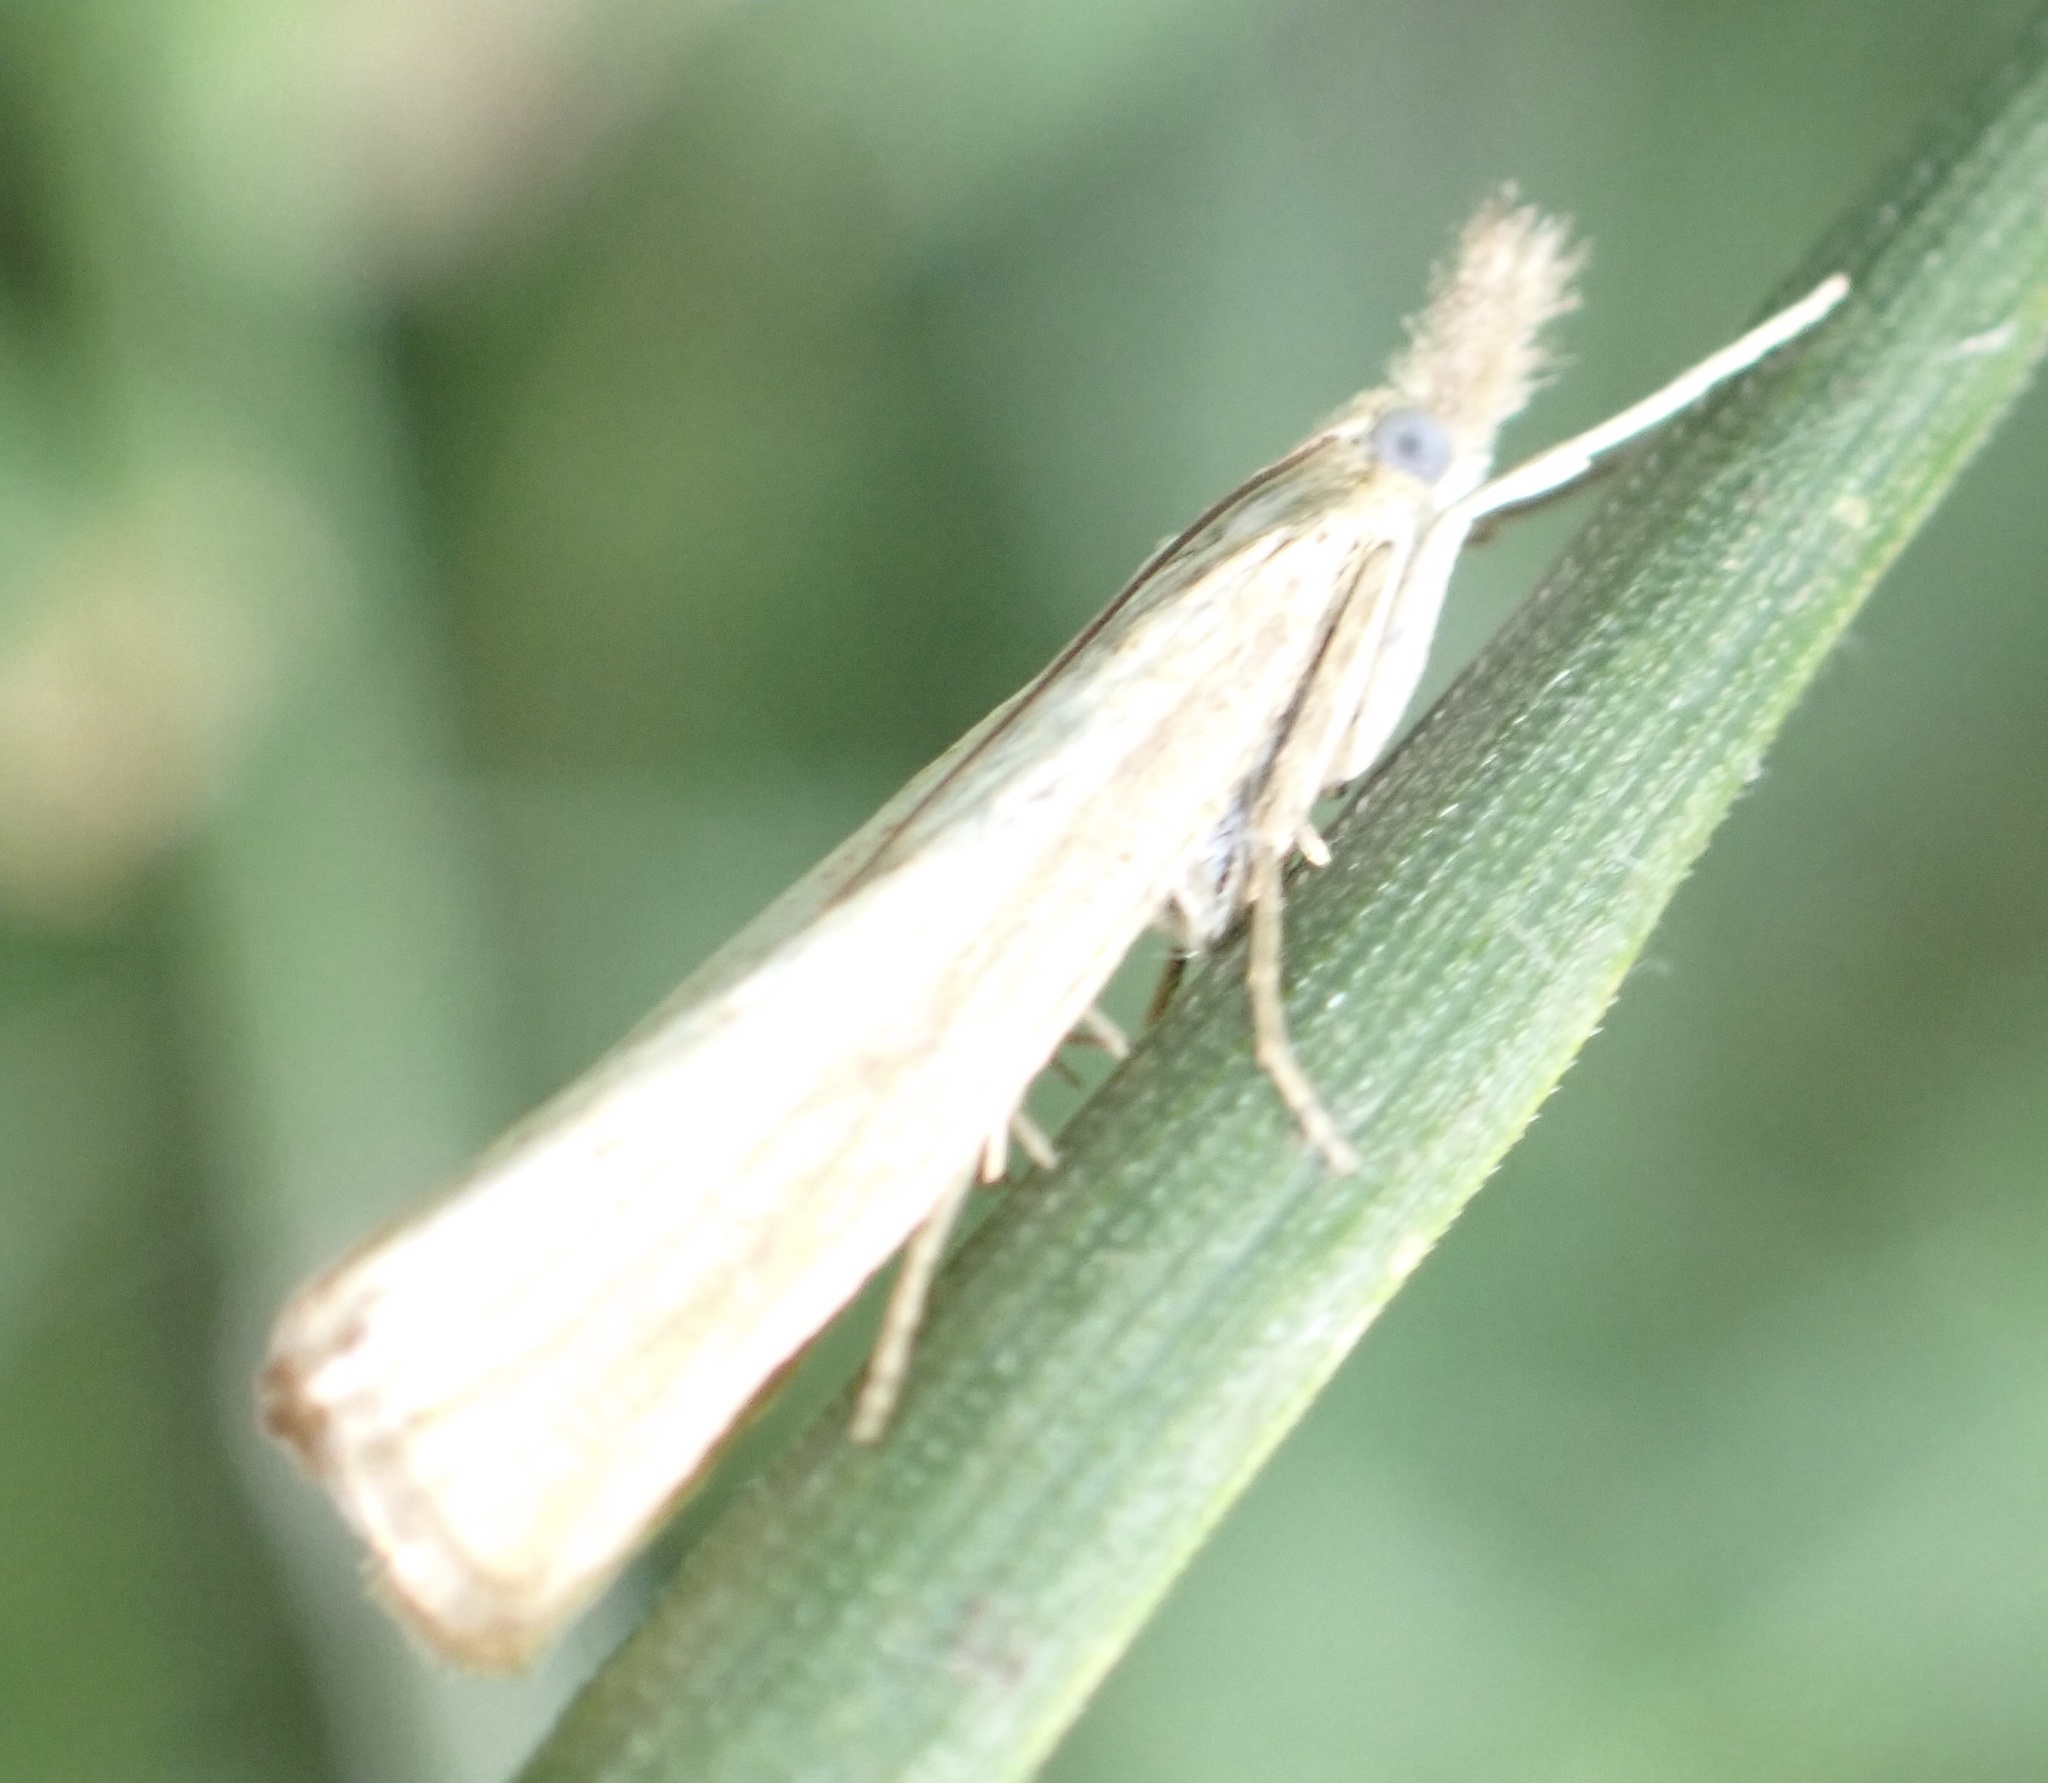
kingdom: Animalia
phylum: Arthropoda
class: Insecta
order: Lepidoptera
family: Crambidae
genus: Agriphila
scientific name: Agriphila straminella
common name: Straw grass-veneer
